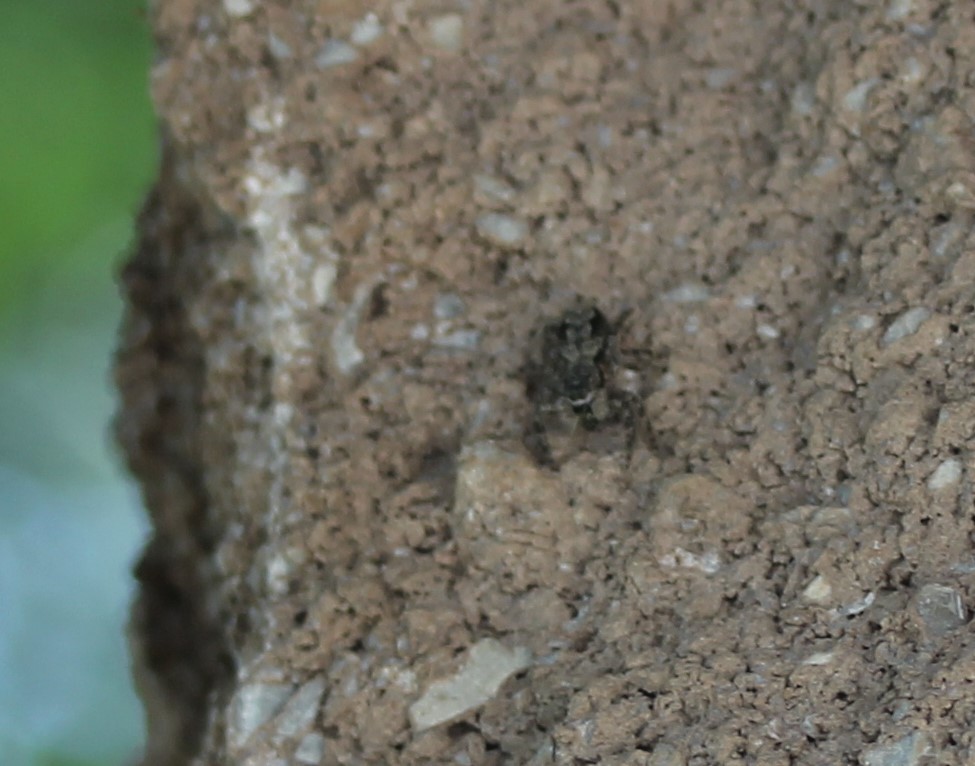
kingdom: Animalia
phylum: Arthropoda
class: Arachnida
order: Araneae
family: Salticidae
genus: Platycryptus
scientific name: Platycryptus undatus
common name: Tan jumping spider
